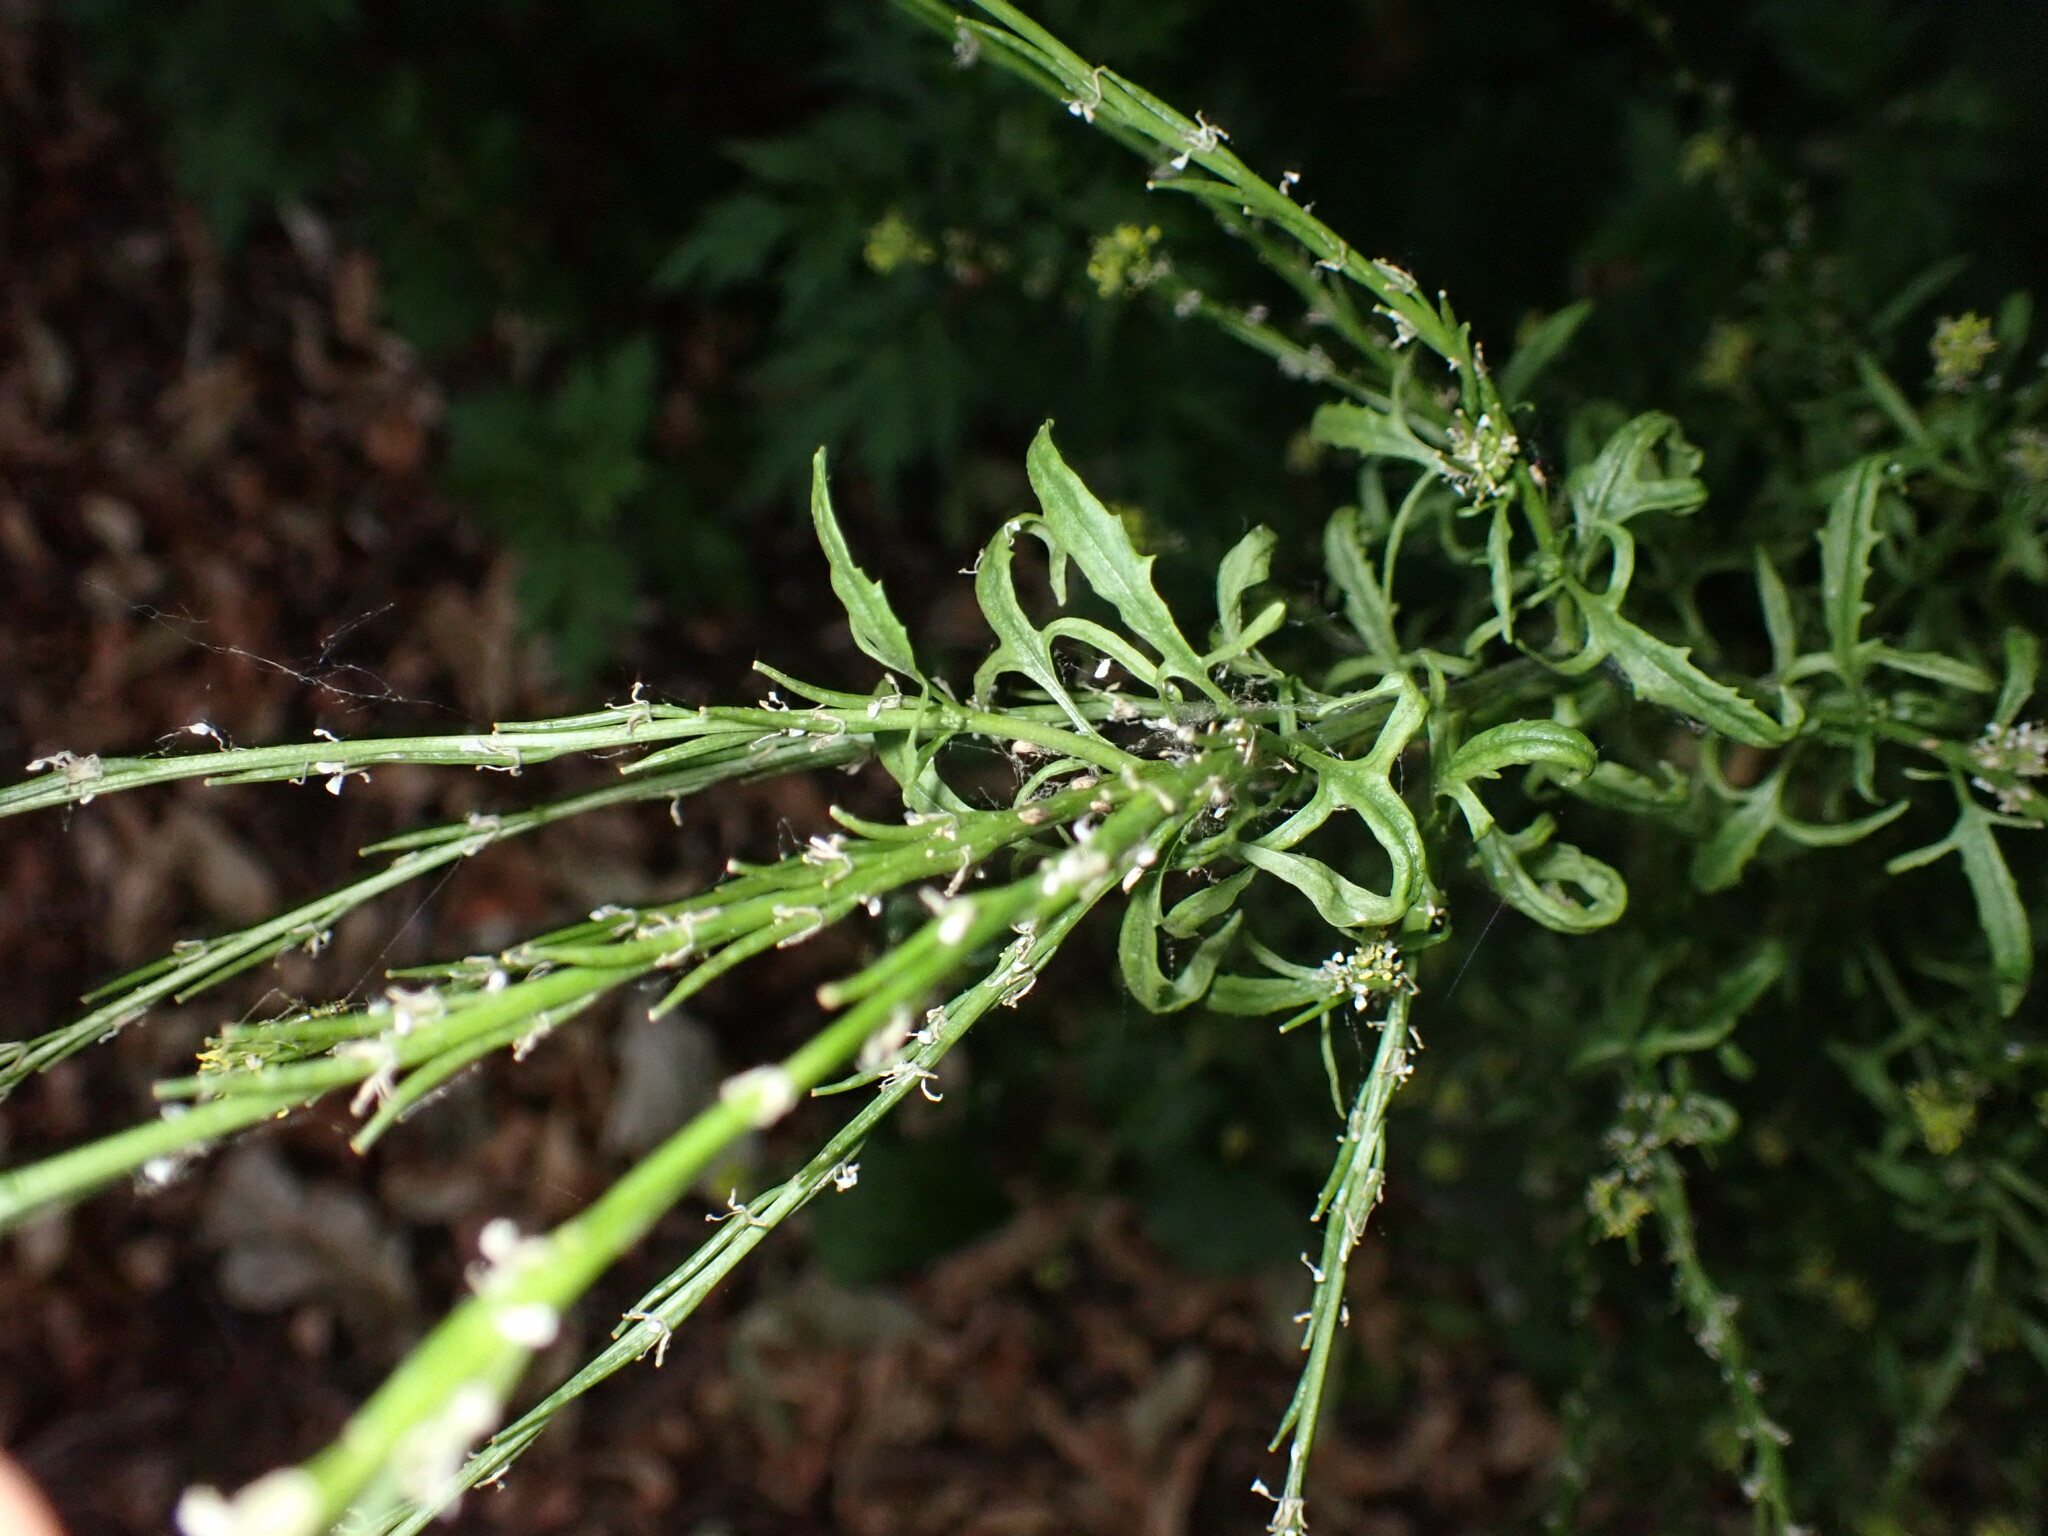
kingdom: Plantae
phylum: Tracheophyta
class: Magnoliopsida
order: Brassicales
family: Brassicaceae
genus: Sisymbrium
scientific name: Sisymbrium officinale
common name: Hedge mustard
